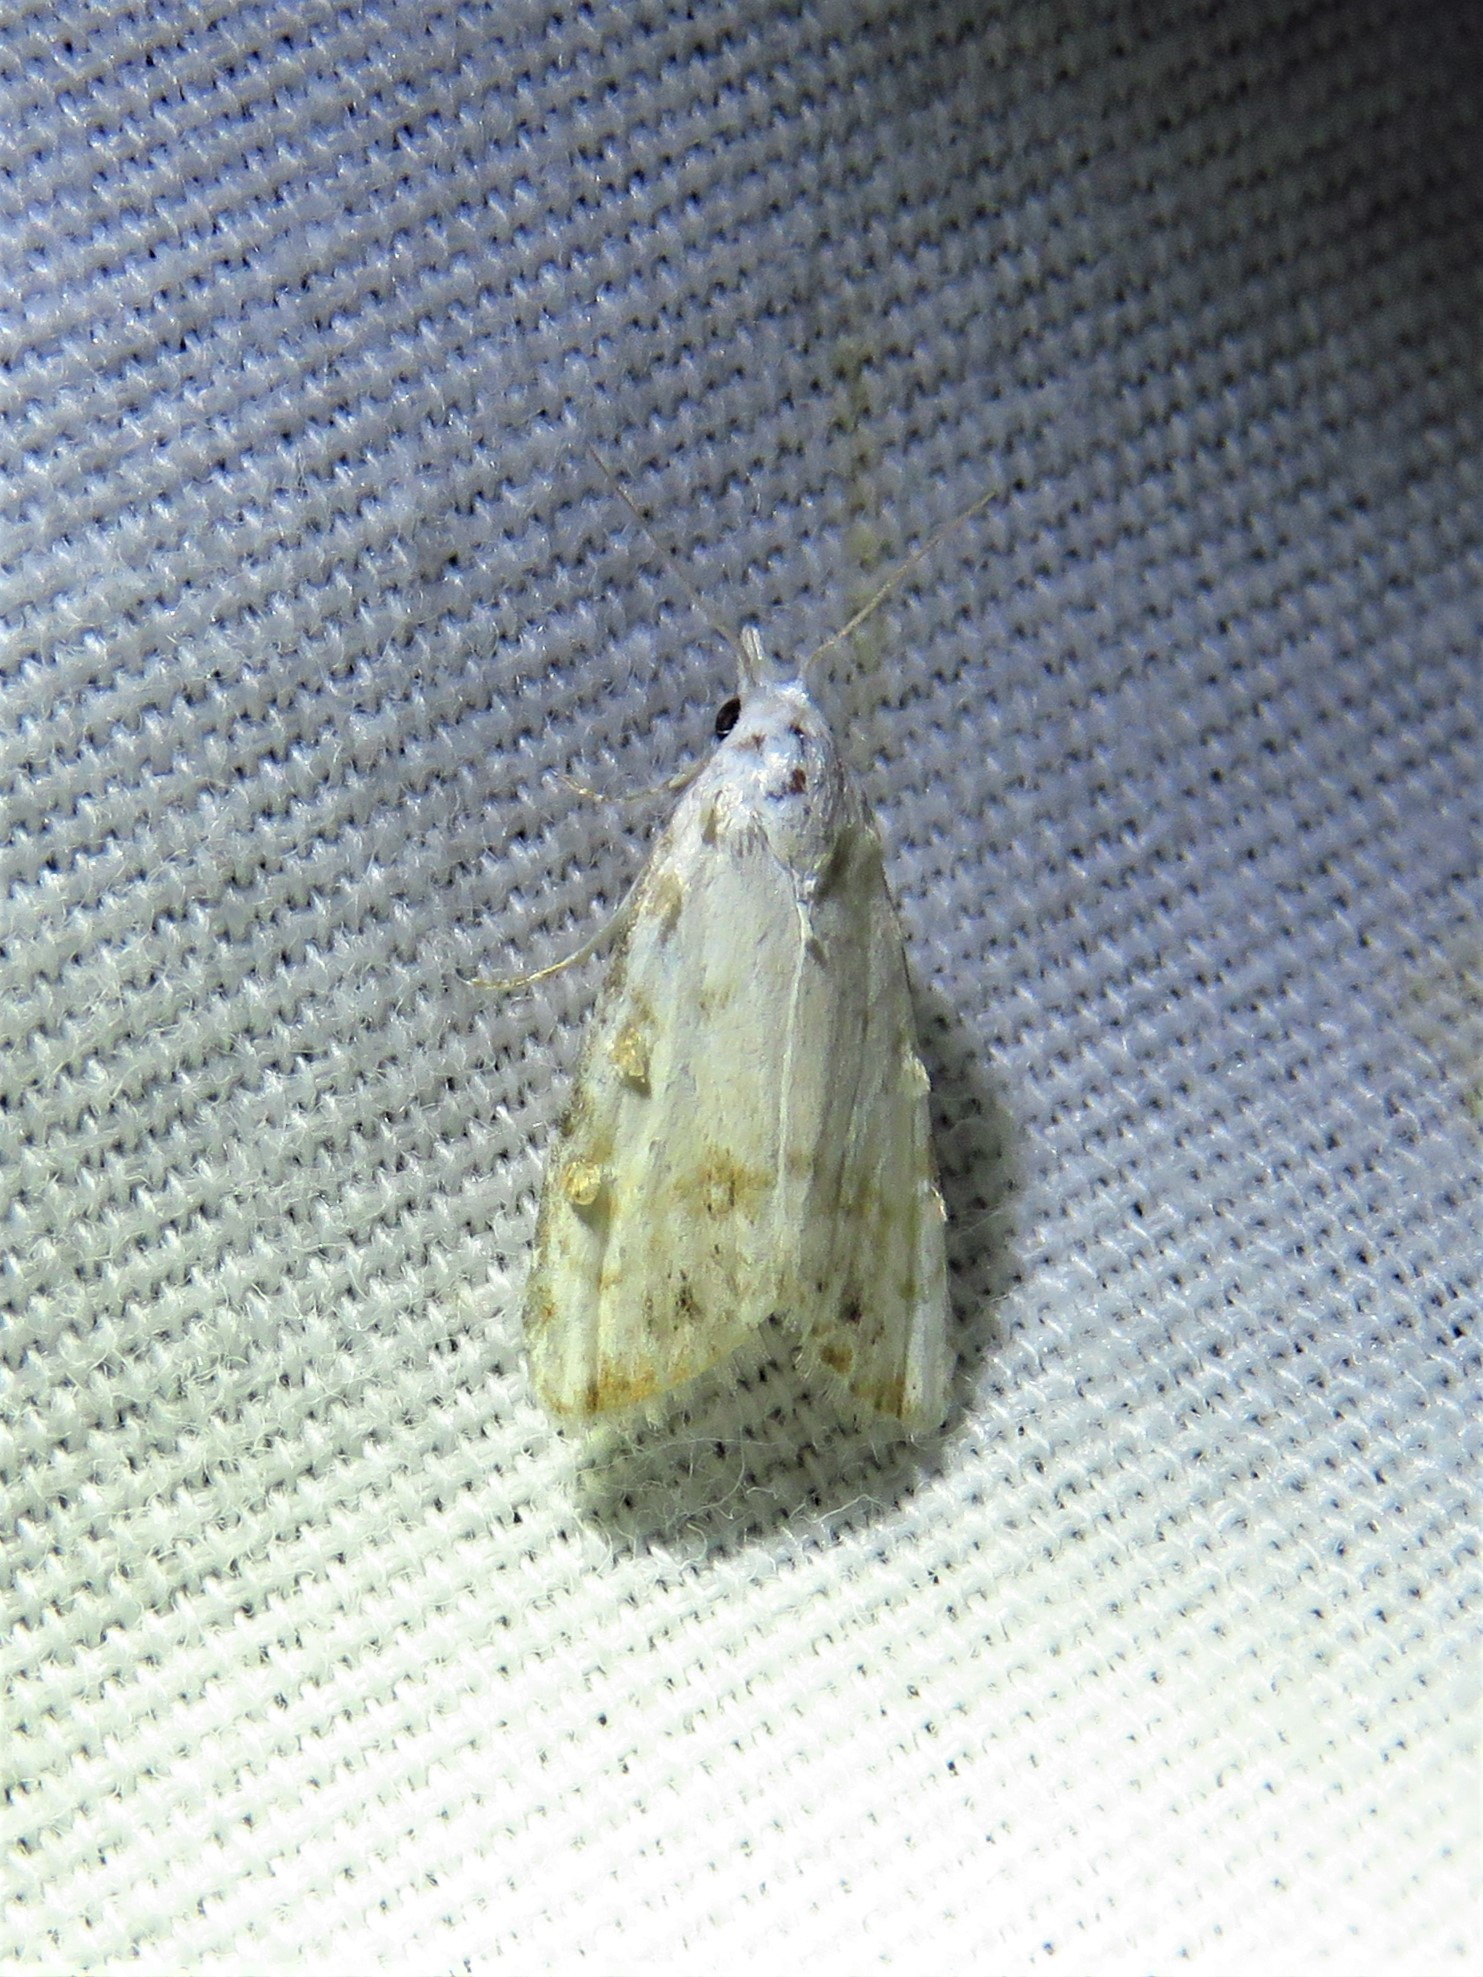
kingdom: Animalia
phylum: Arthropoda
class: Insecta
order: Lepidoptera
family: Nolidae
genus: Nola
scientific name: Nola cereella
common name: Sorghum webworm moth
